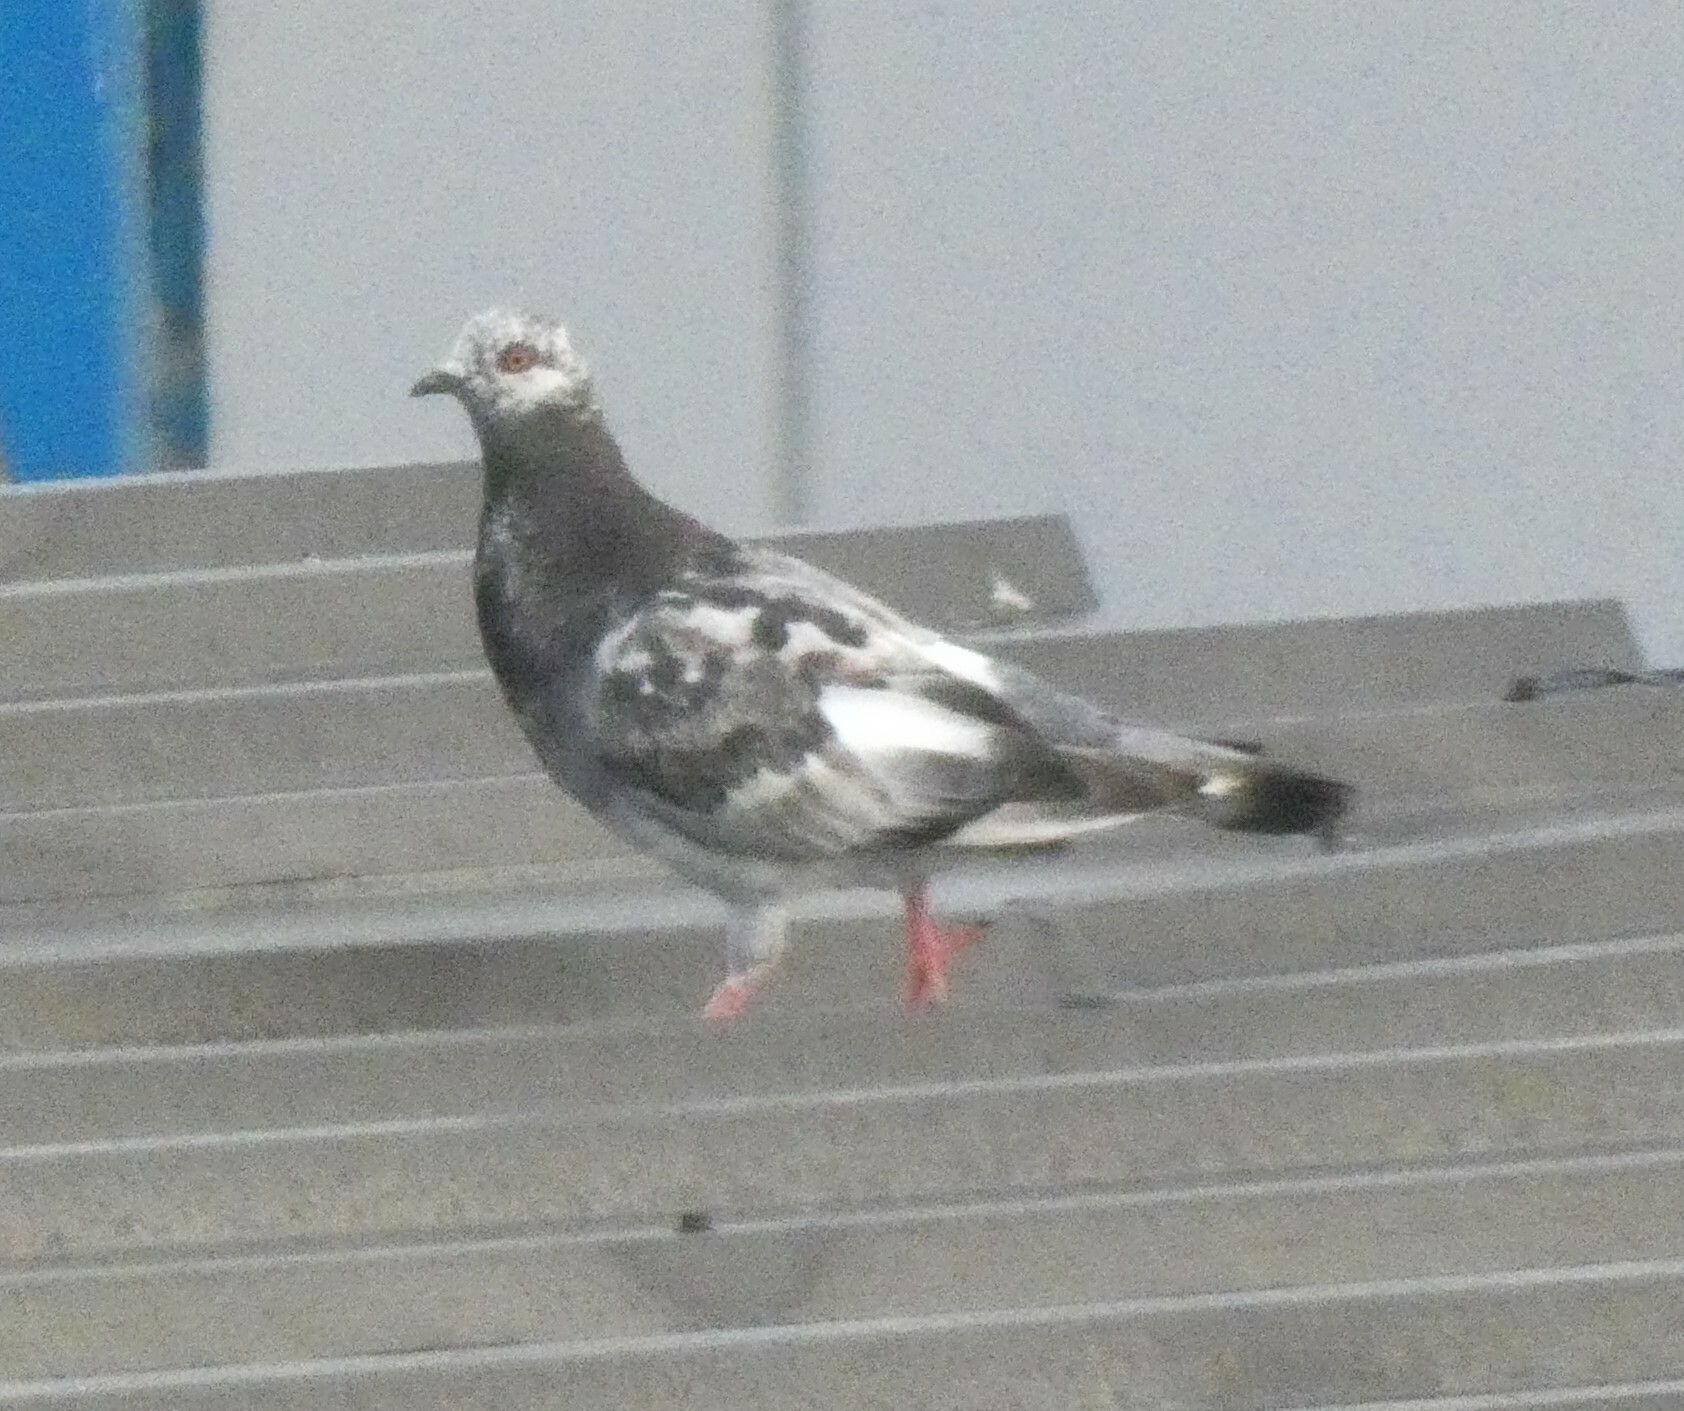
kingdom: Animalia
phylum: Chordata
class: Aves
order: Columbiformes
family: Columbidae
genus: Columba
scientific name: Columba livia
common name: Rock pigeon
